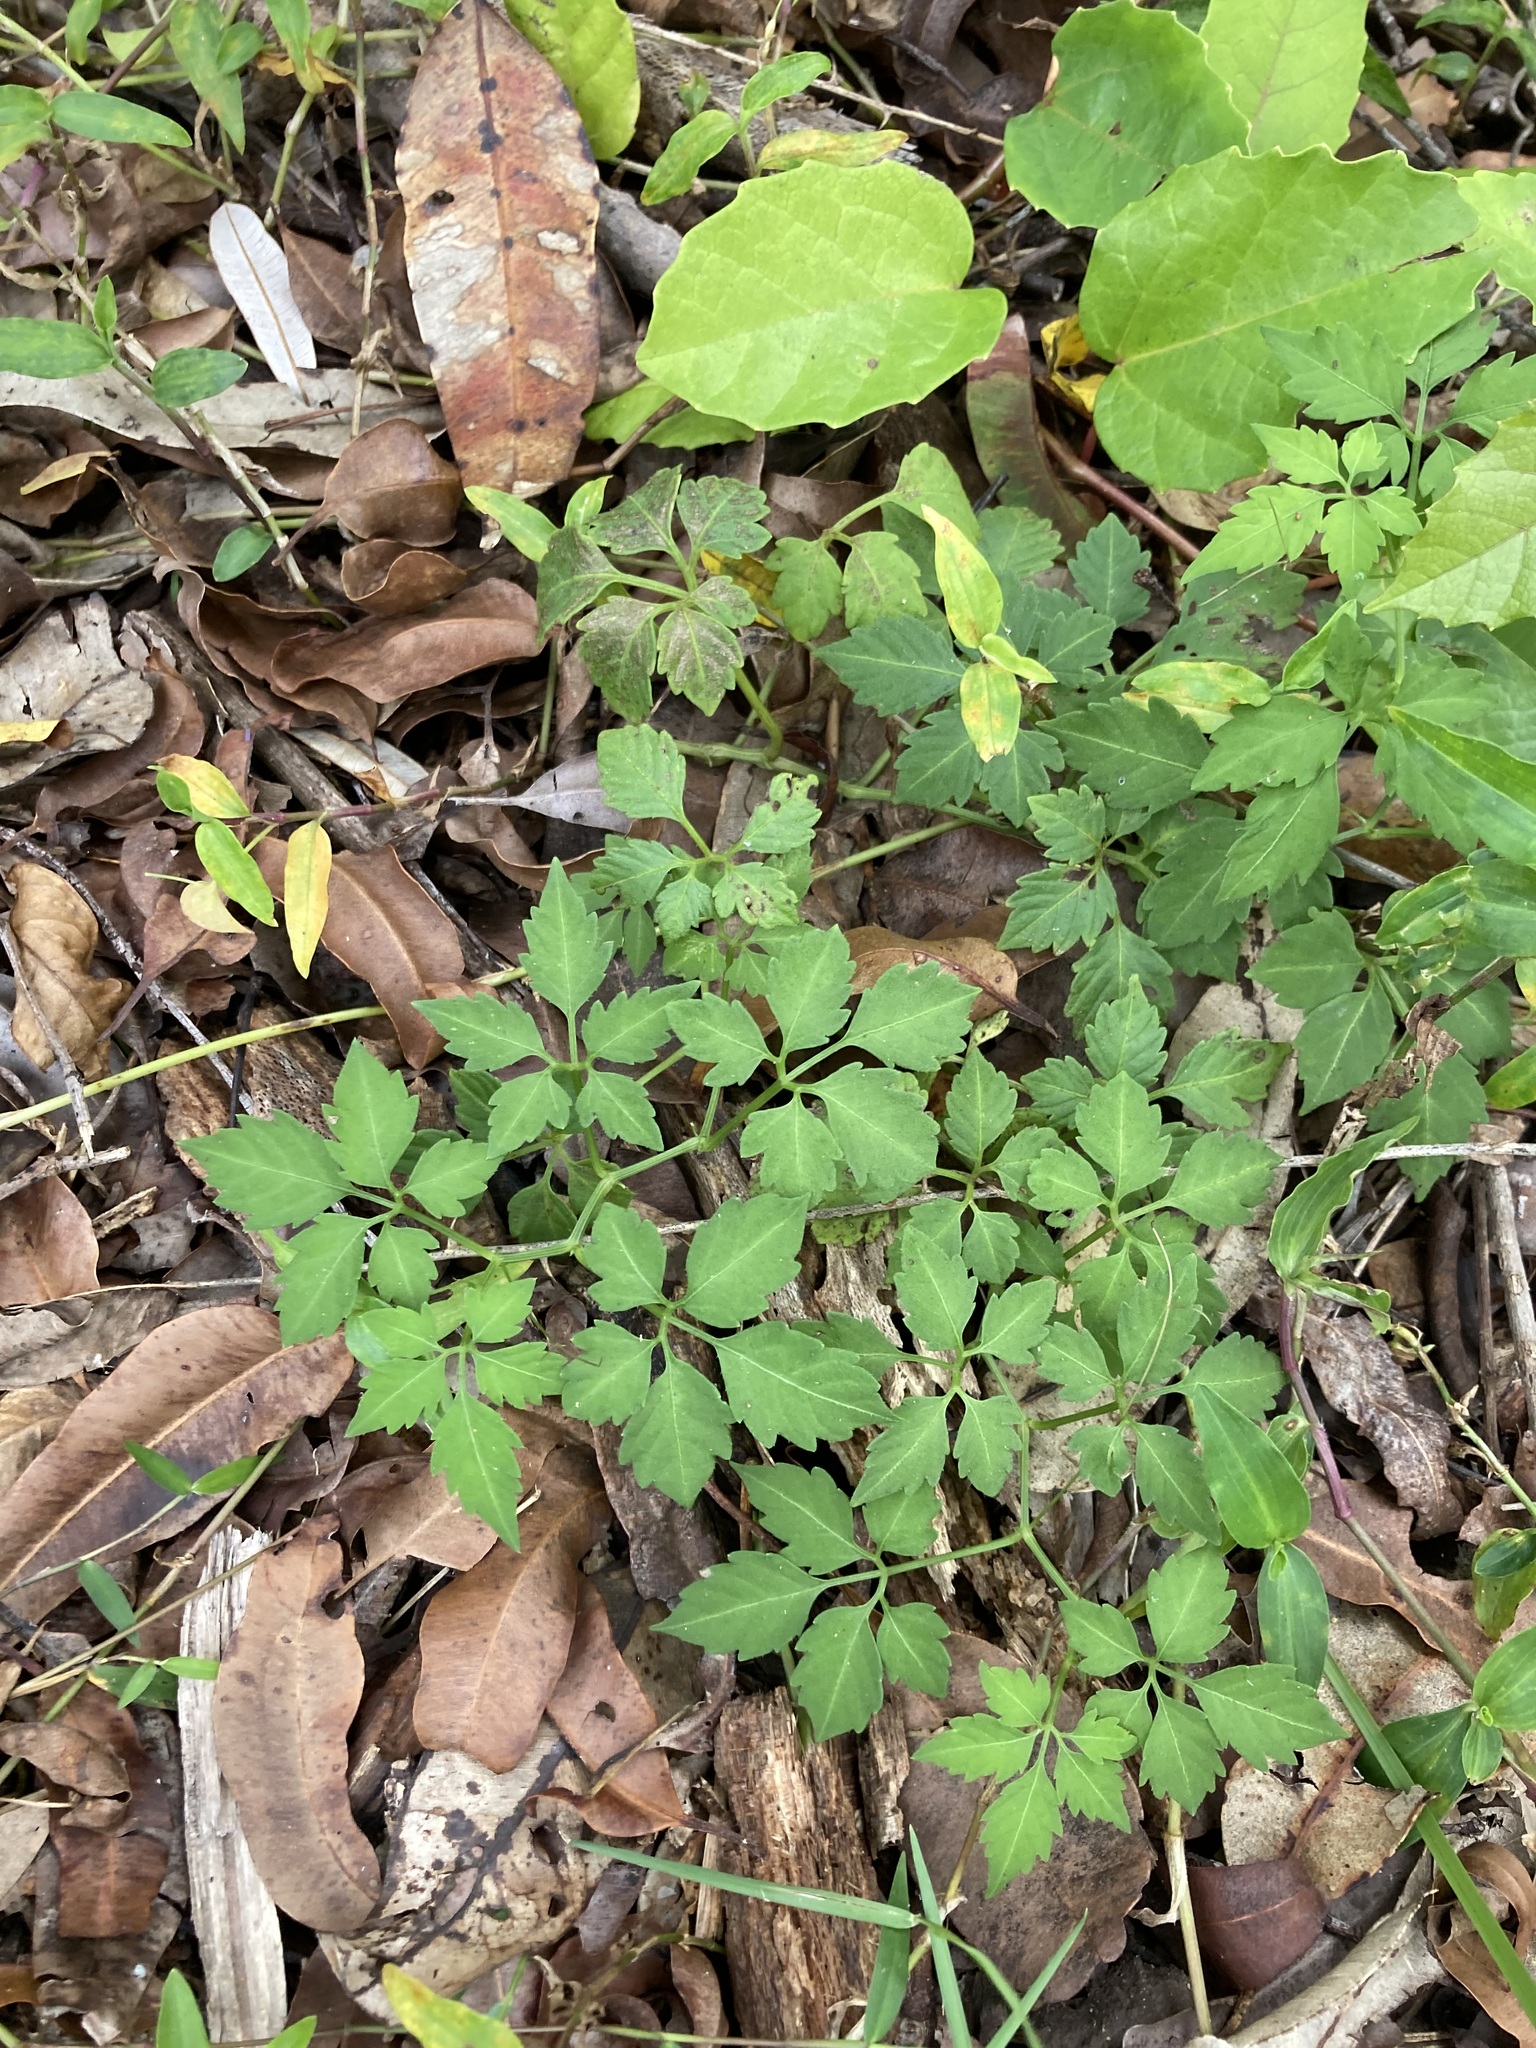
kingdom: Plantae
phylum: Tracheophyta
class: Magnoliopsida
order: Vitales
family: Vitaceae
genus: Causonis
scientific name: Causonis clematidea
